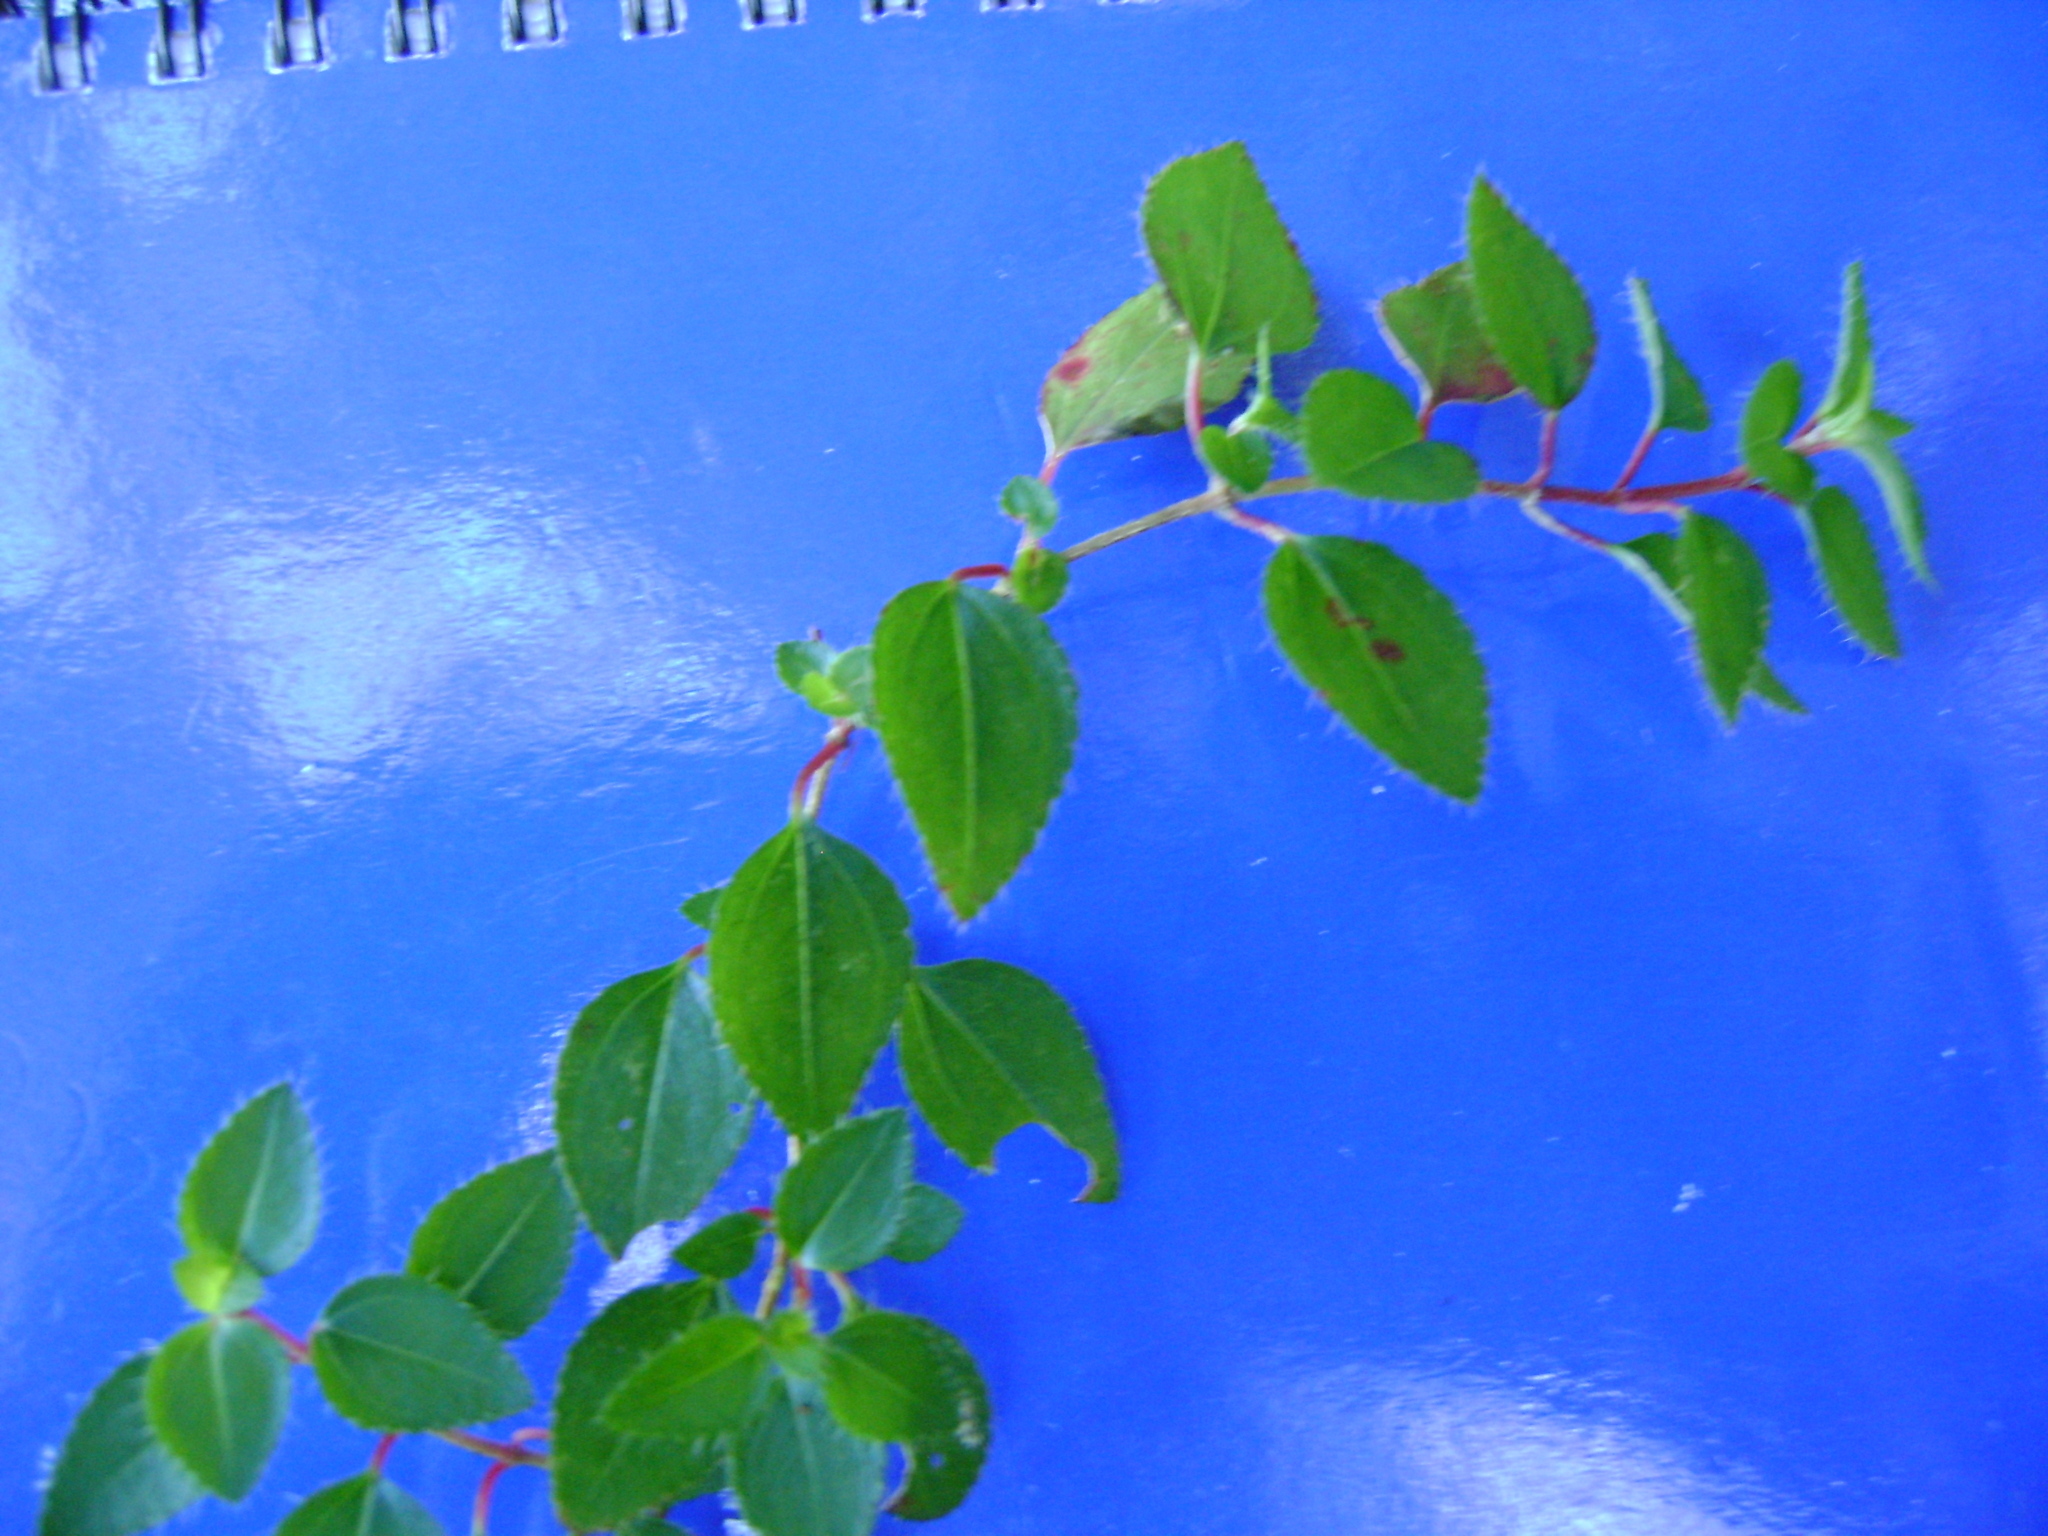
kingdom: Plantae
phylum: Tracheophyta
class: Magnoliopsida
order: Myrtales
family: Melastomataceae
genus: Heterocentron
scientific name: Heterocentron elegans
